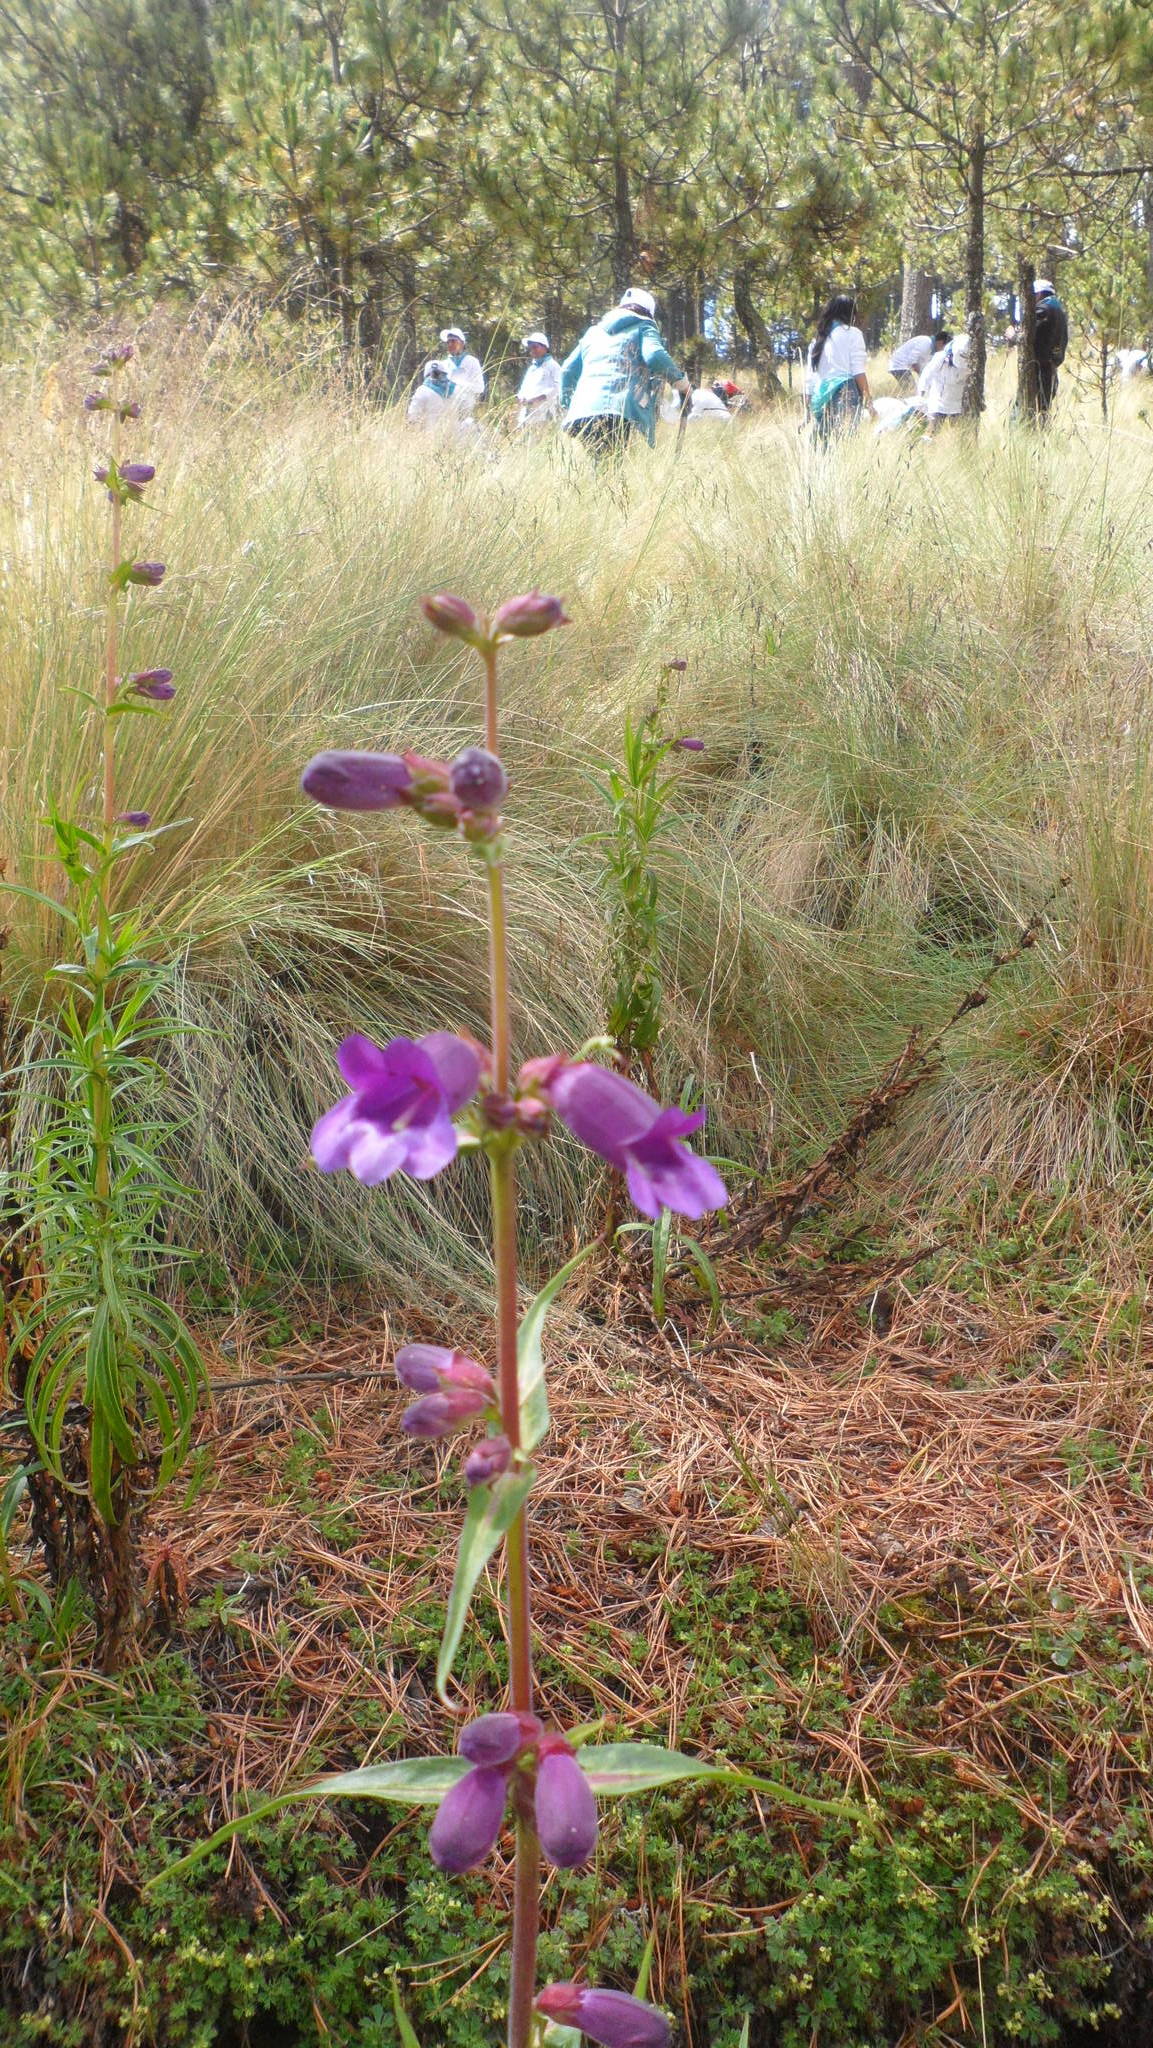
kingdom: Plantae
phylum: Tracheophyta
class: Magnoliopsida
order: Lamiales
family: Plantaginaceae
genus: Penstemon
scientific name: Penstemon gentianoides
